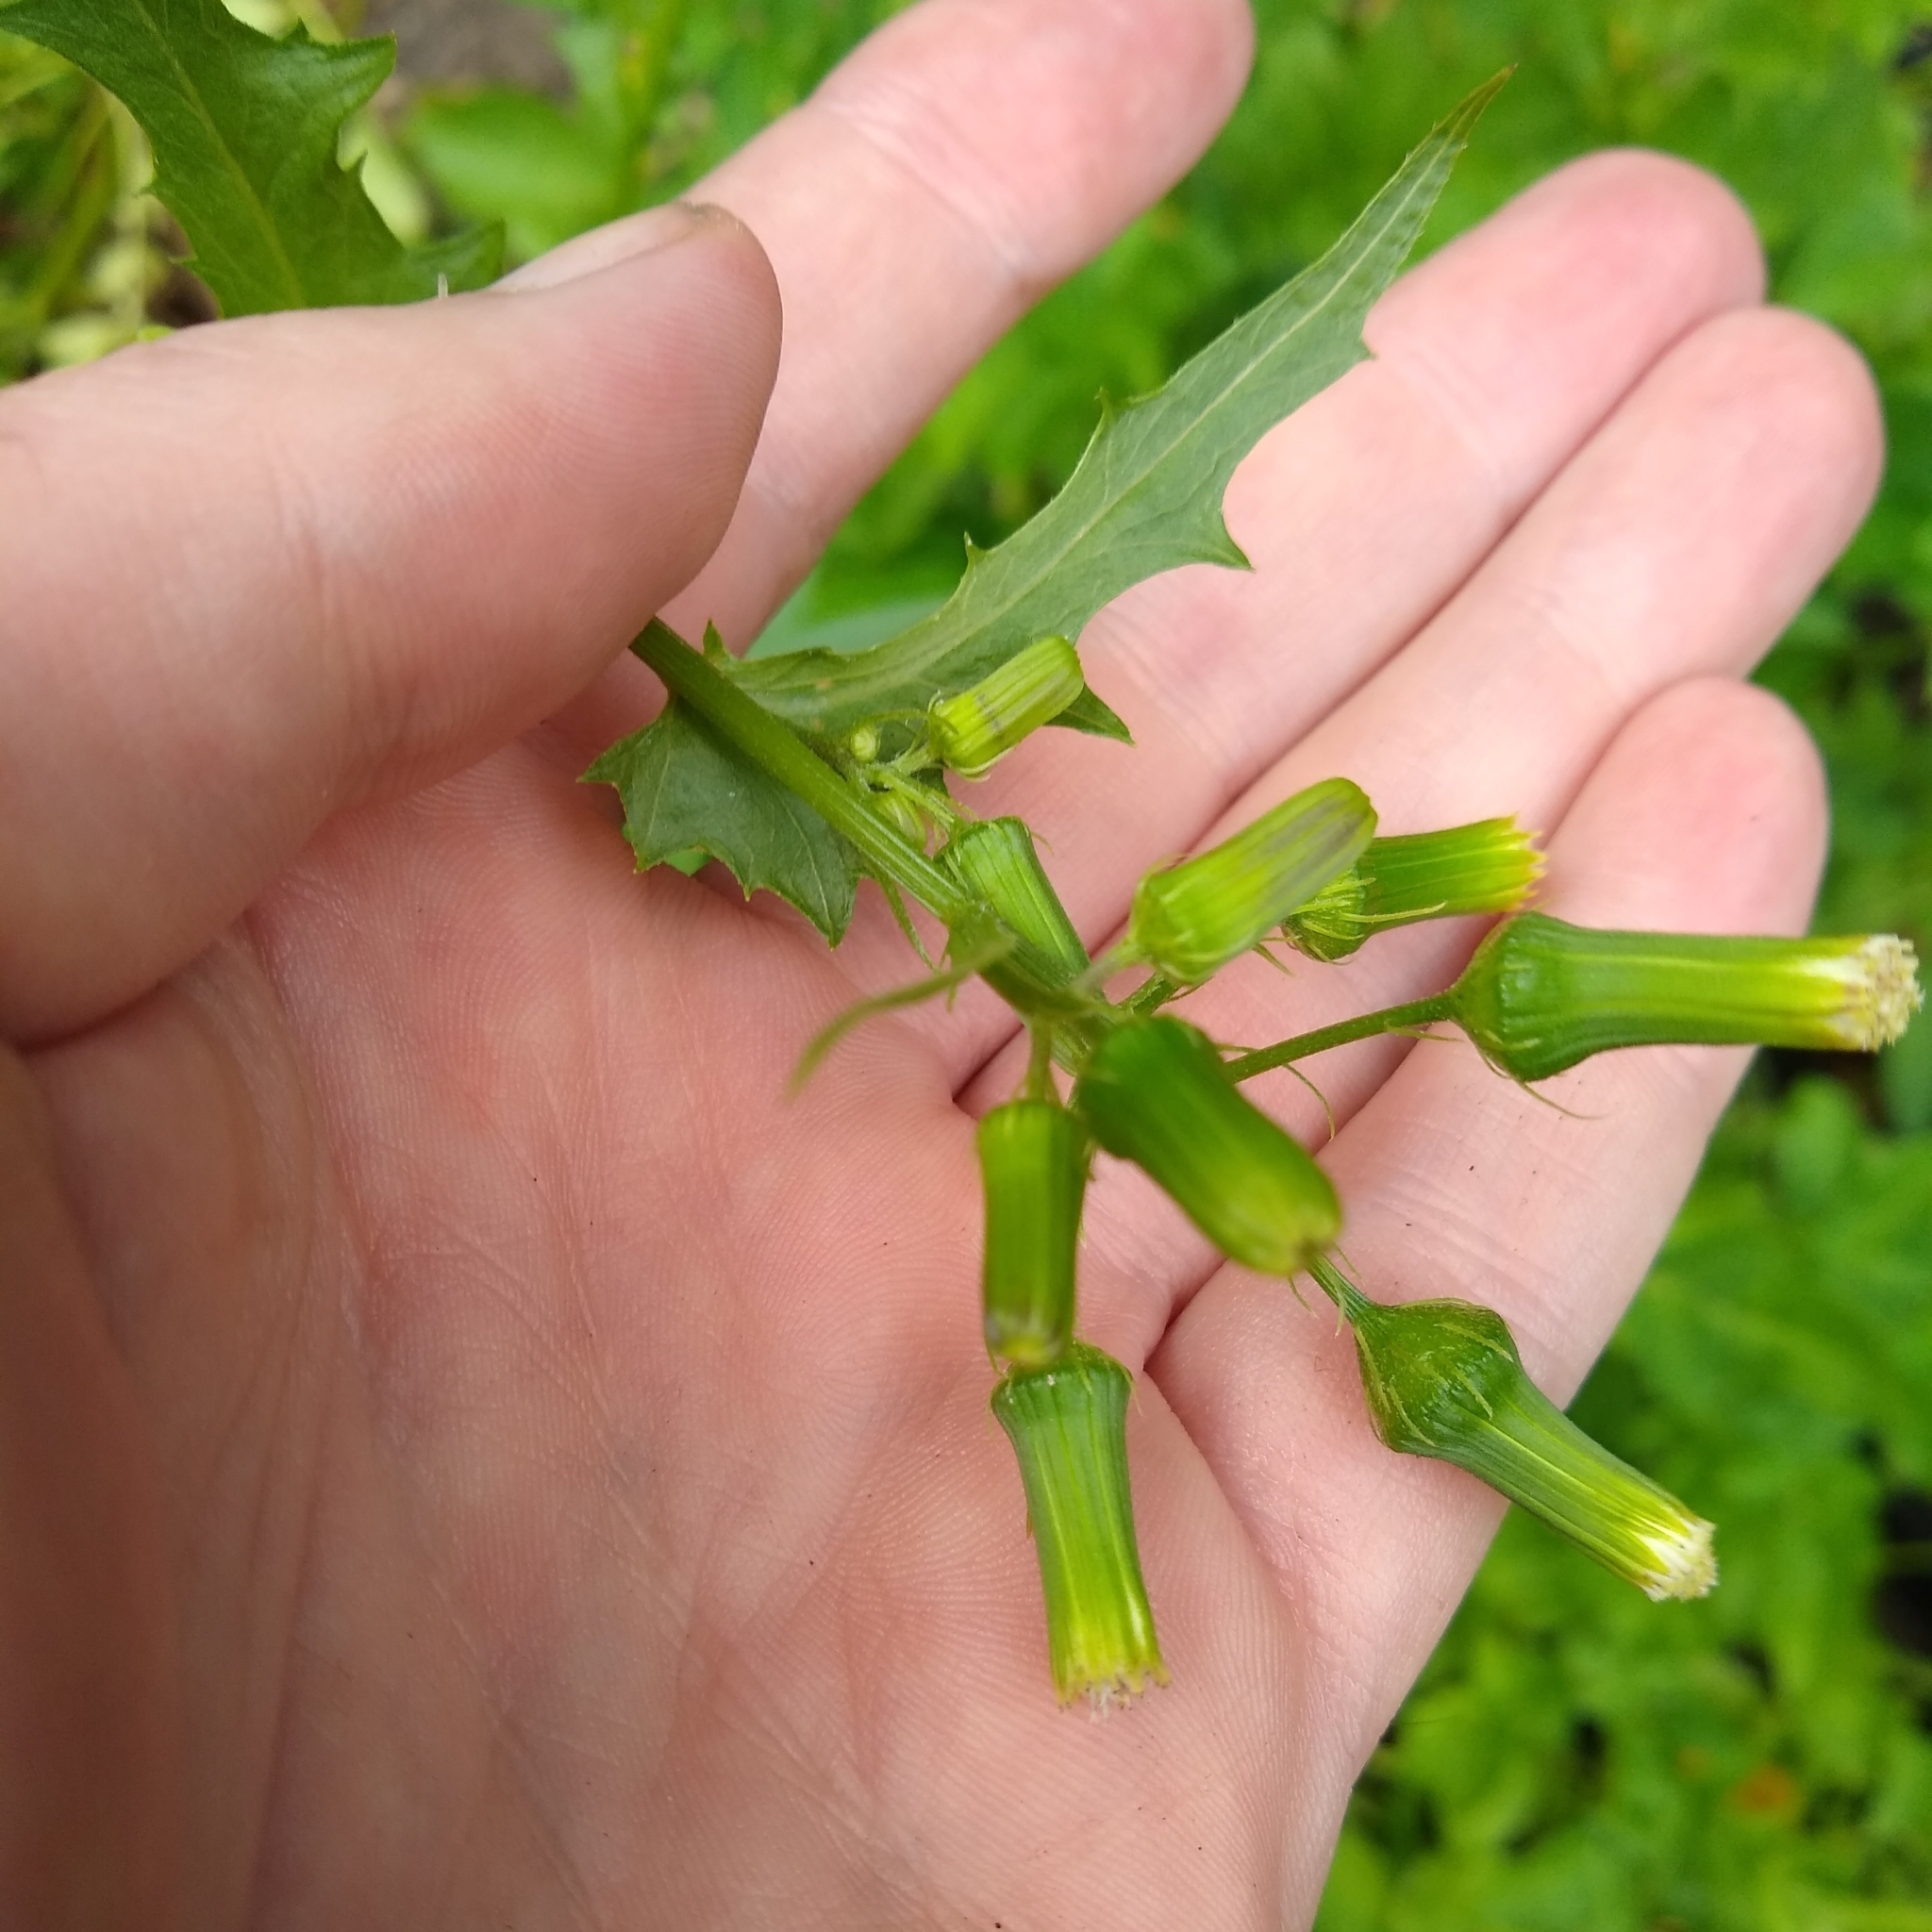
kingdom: Plantae
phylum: Tracheophyta
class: Magnoliopsida
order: Asterales
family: Asteraceae
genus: Erechtites
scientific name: Erechtites hieraciifolius
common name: American burnweed
